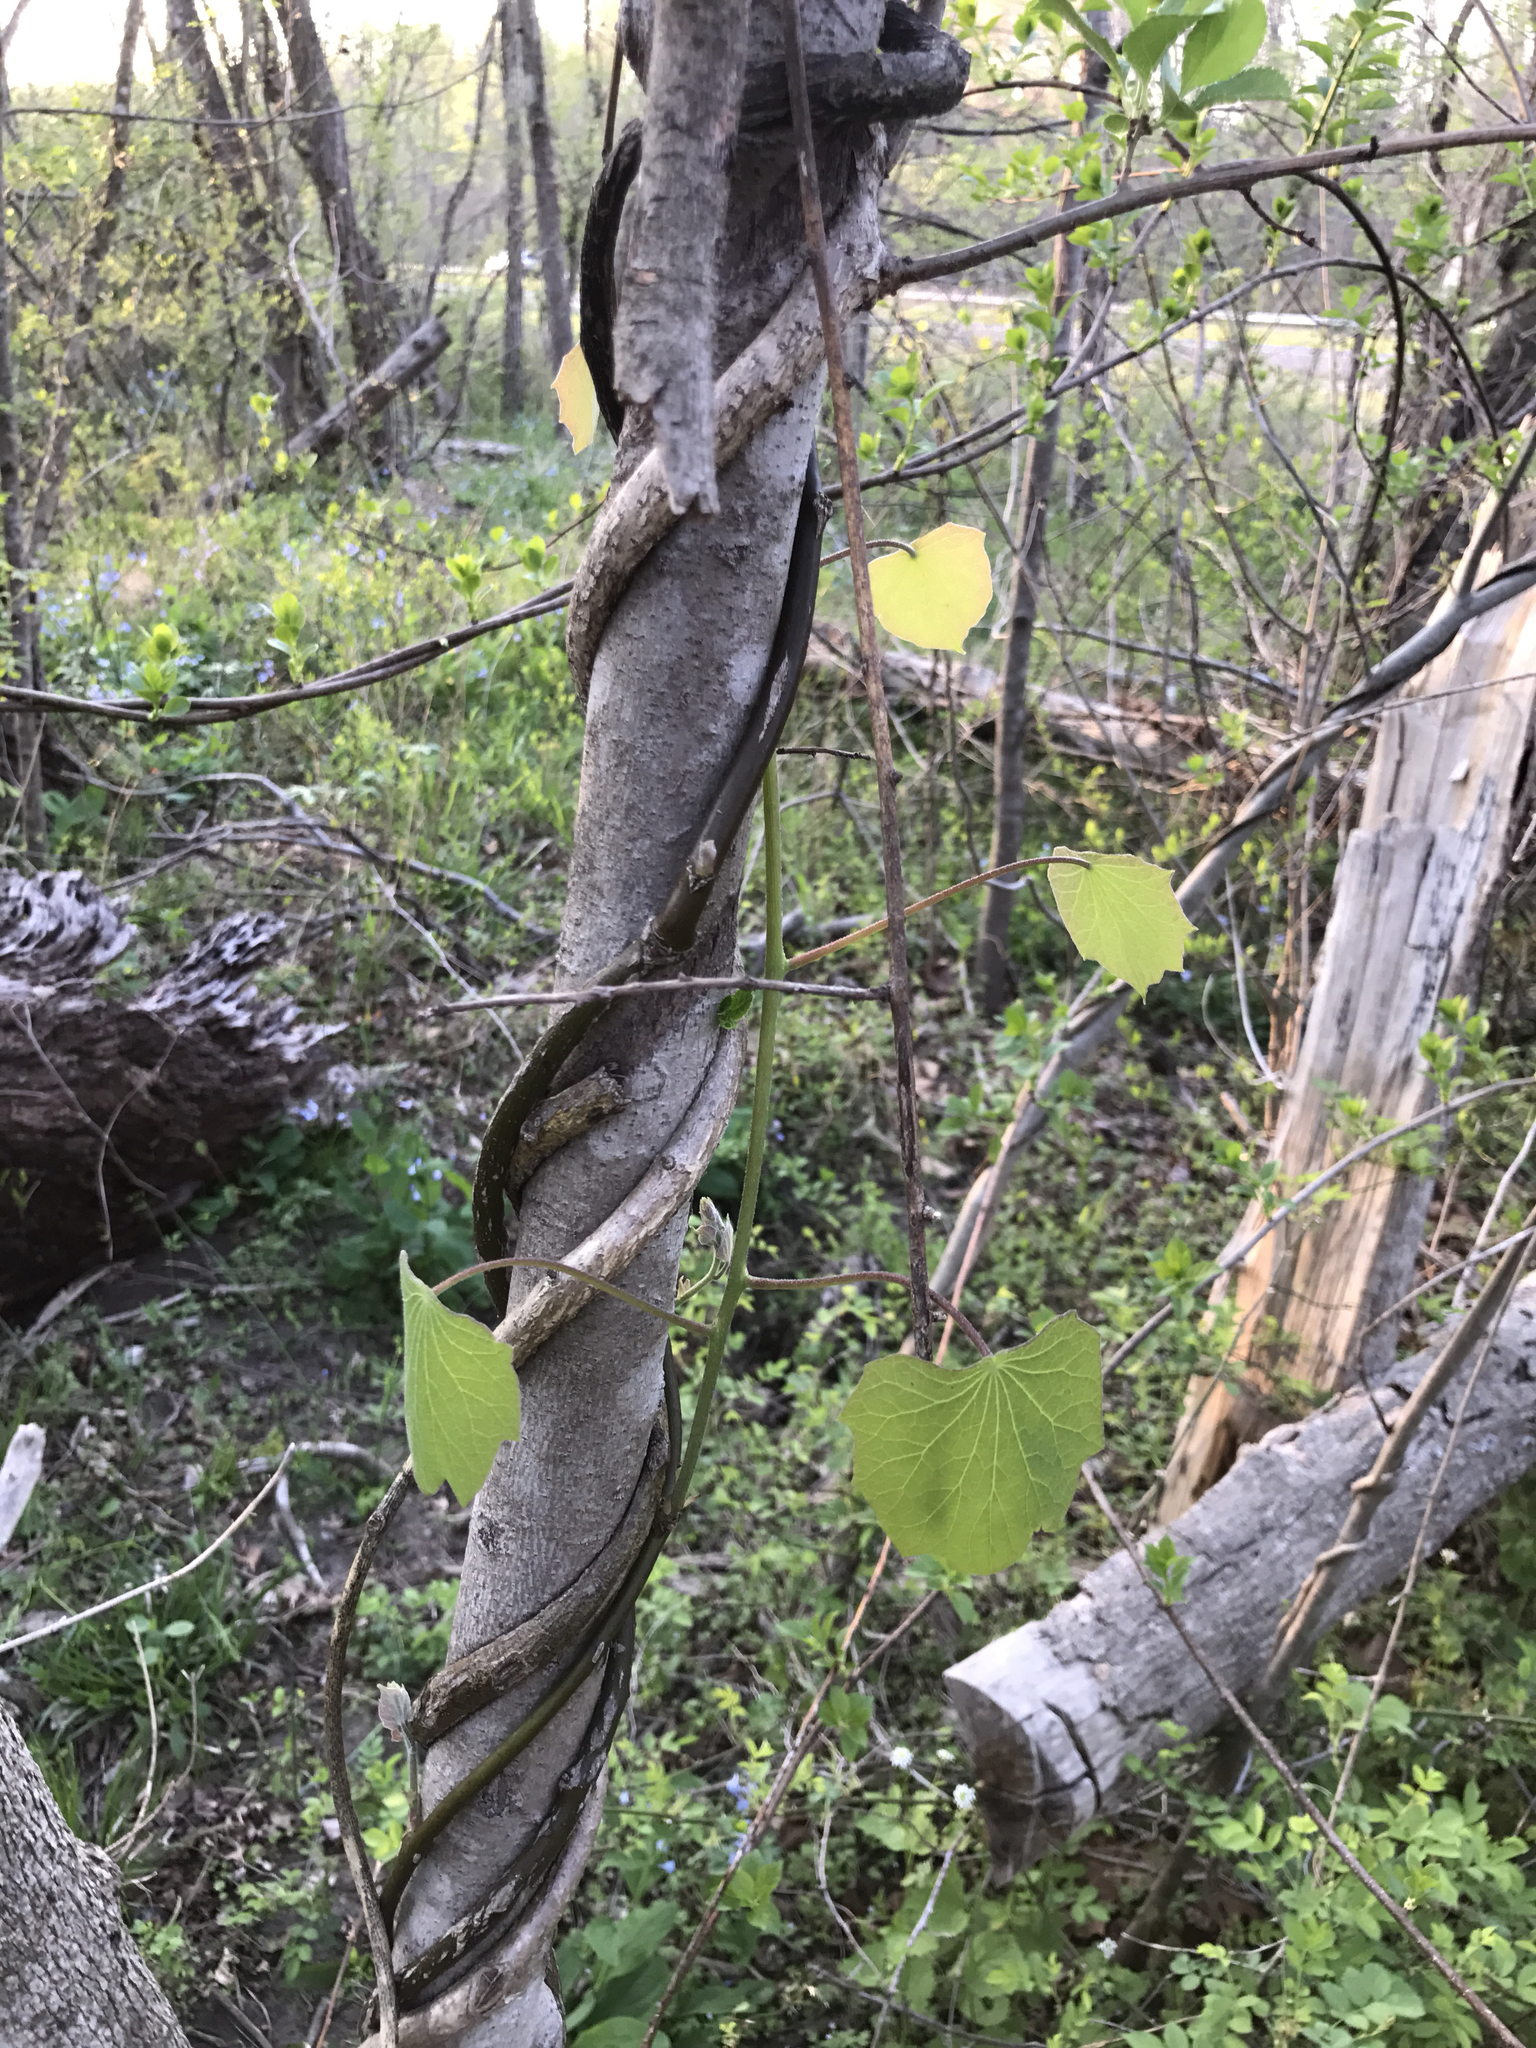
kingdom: Plantae
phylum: Tracheophyta
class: Magnoliopsida
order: Ranunculales
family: Menispermaceae
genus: Menispermum
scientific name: Menispermum canadense
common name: Moonseed
